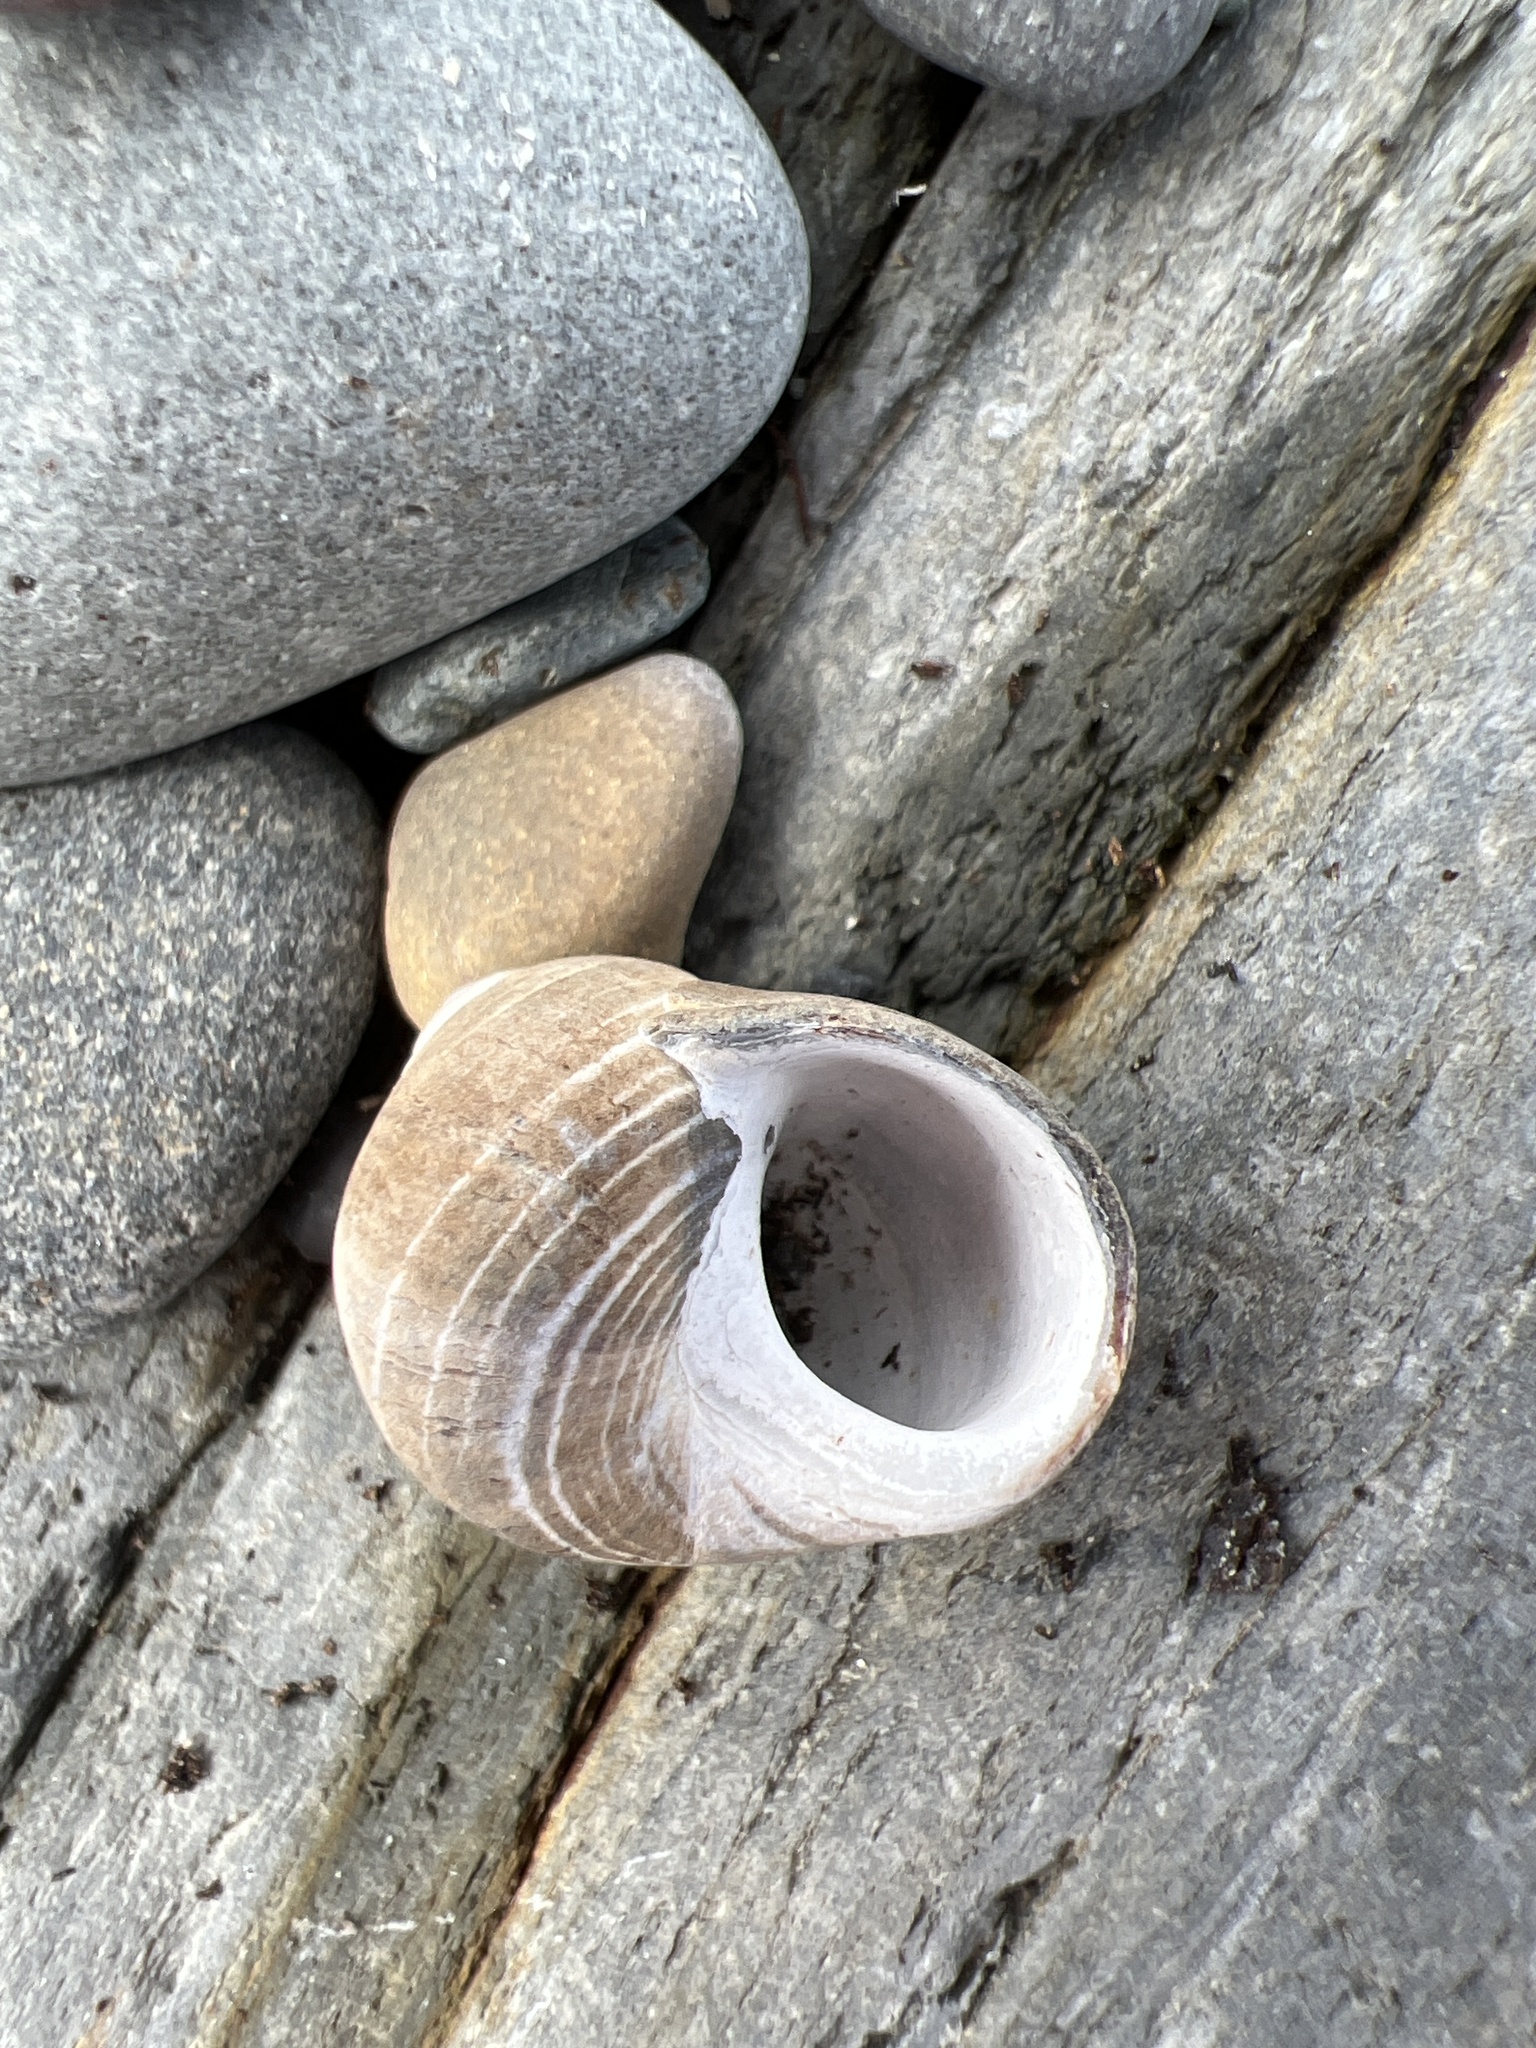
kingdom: Animalia
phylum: Mollusca
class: Gastropoda
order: Littorinimorpha
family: Littorinidae
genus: Littorina
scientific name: Littorina littorea
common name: Common periwinkle
